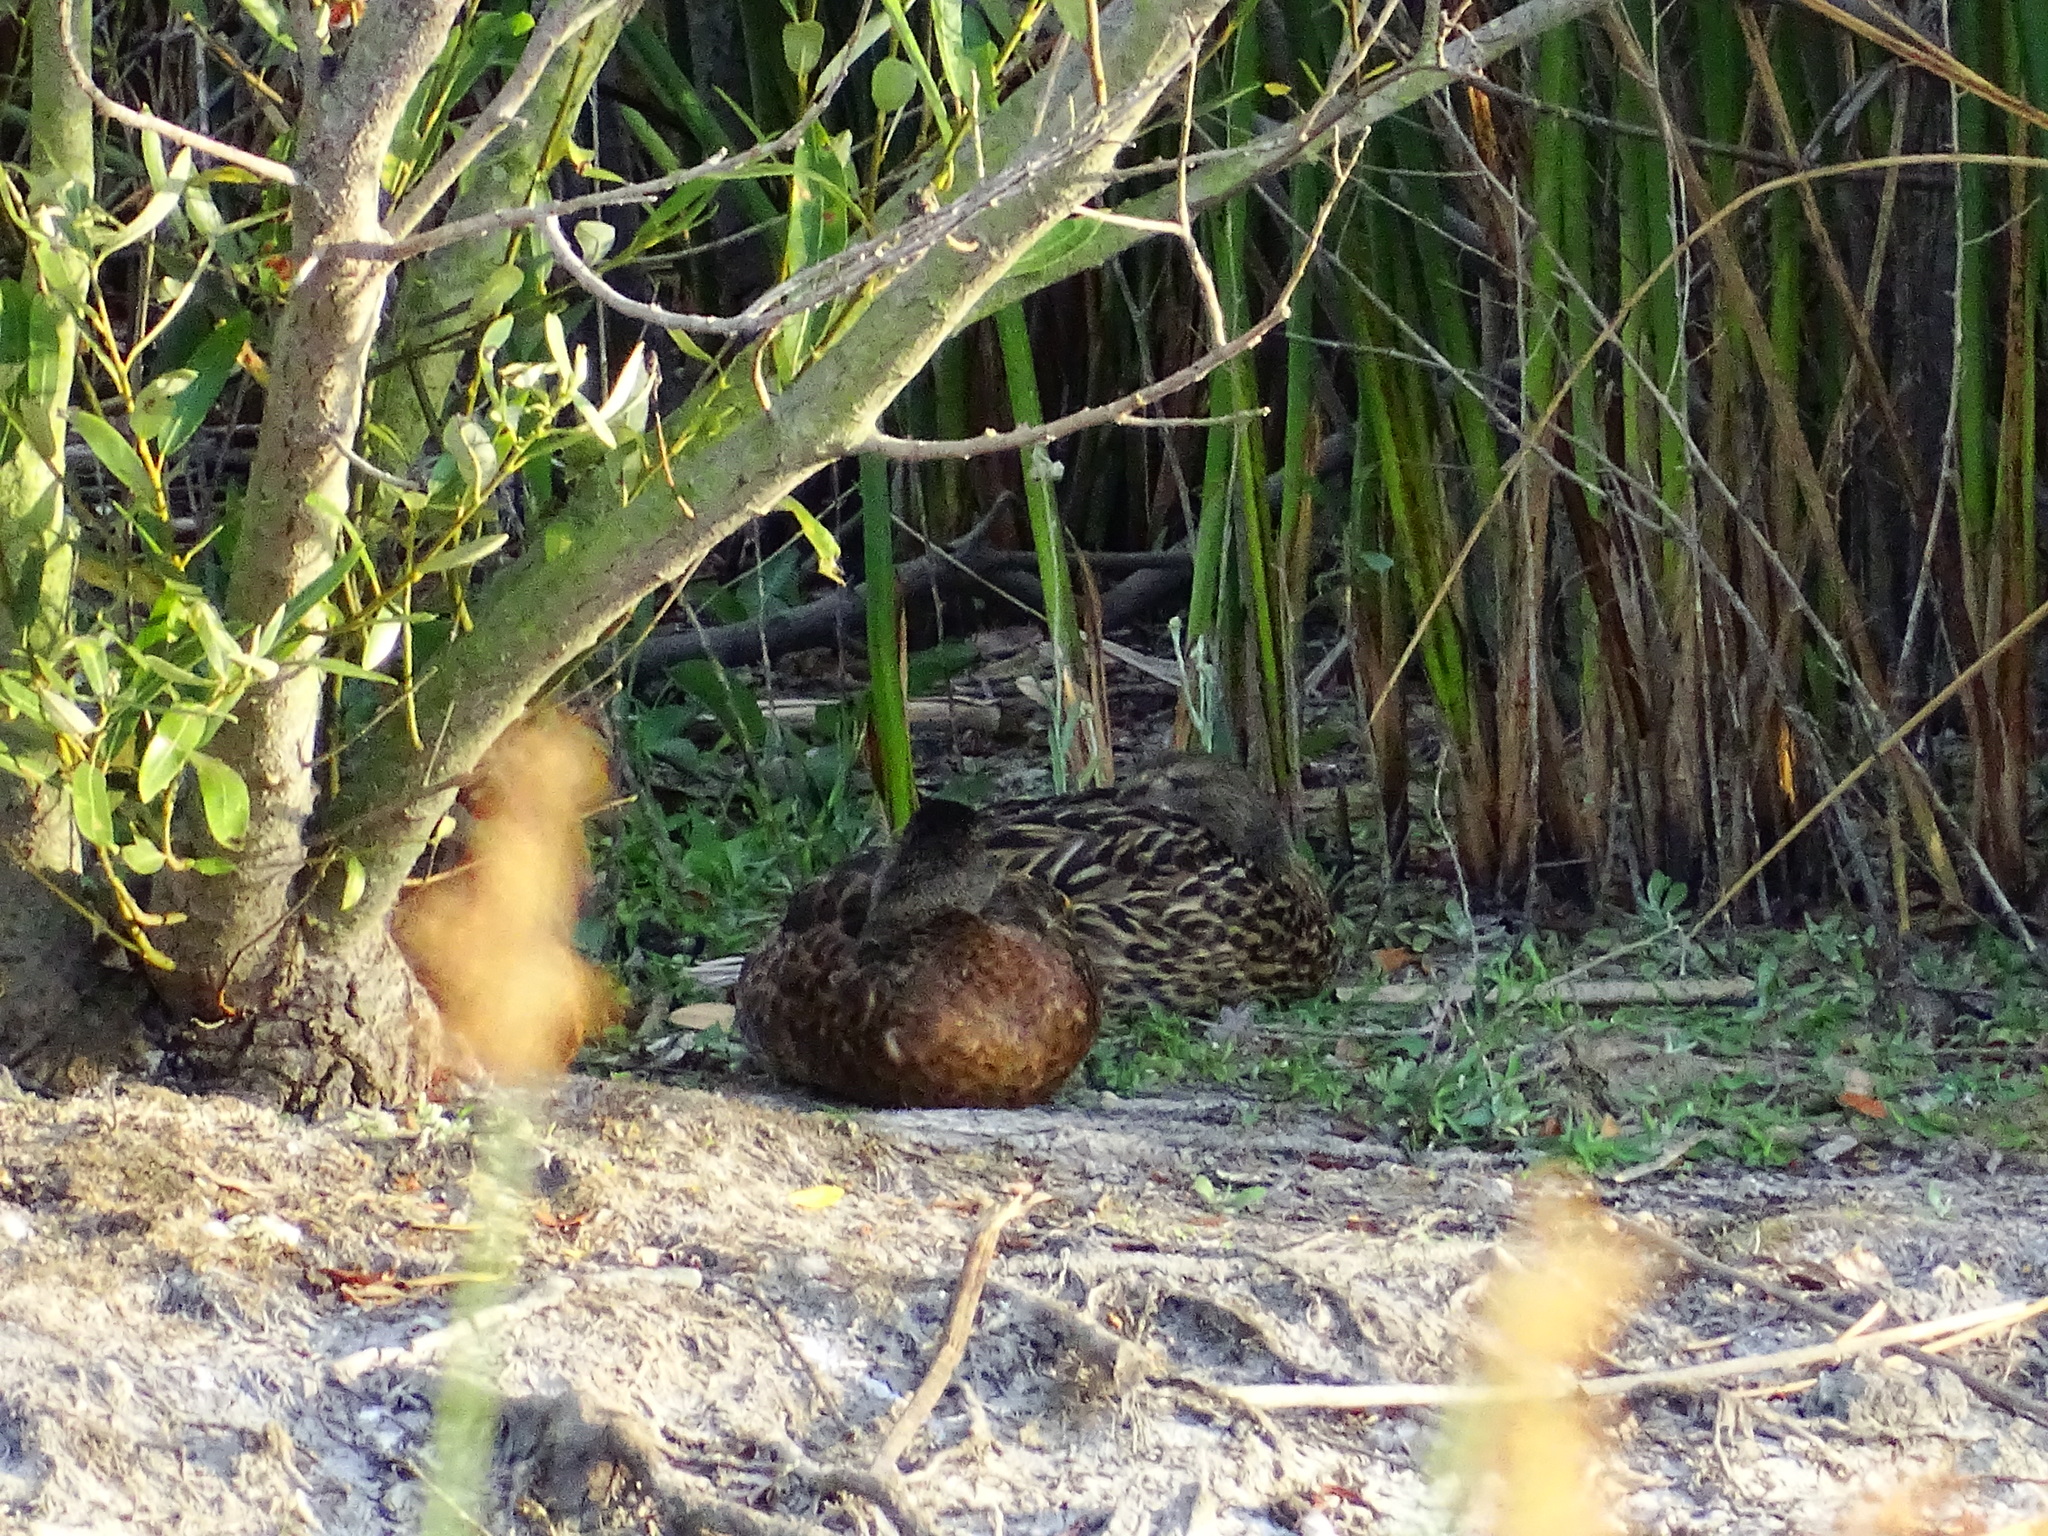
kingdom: Animalia
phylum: Chordata
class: Aves
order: Anseriformes
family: Anatidae
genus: Anas
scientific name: Anas platyrhynchos
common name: Mallard
